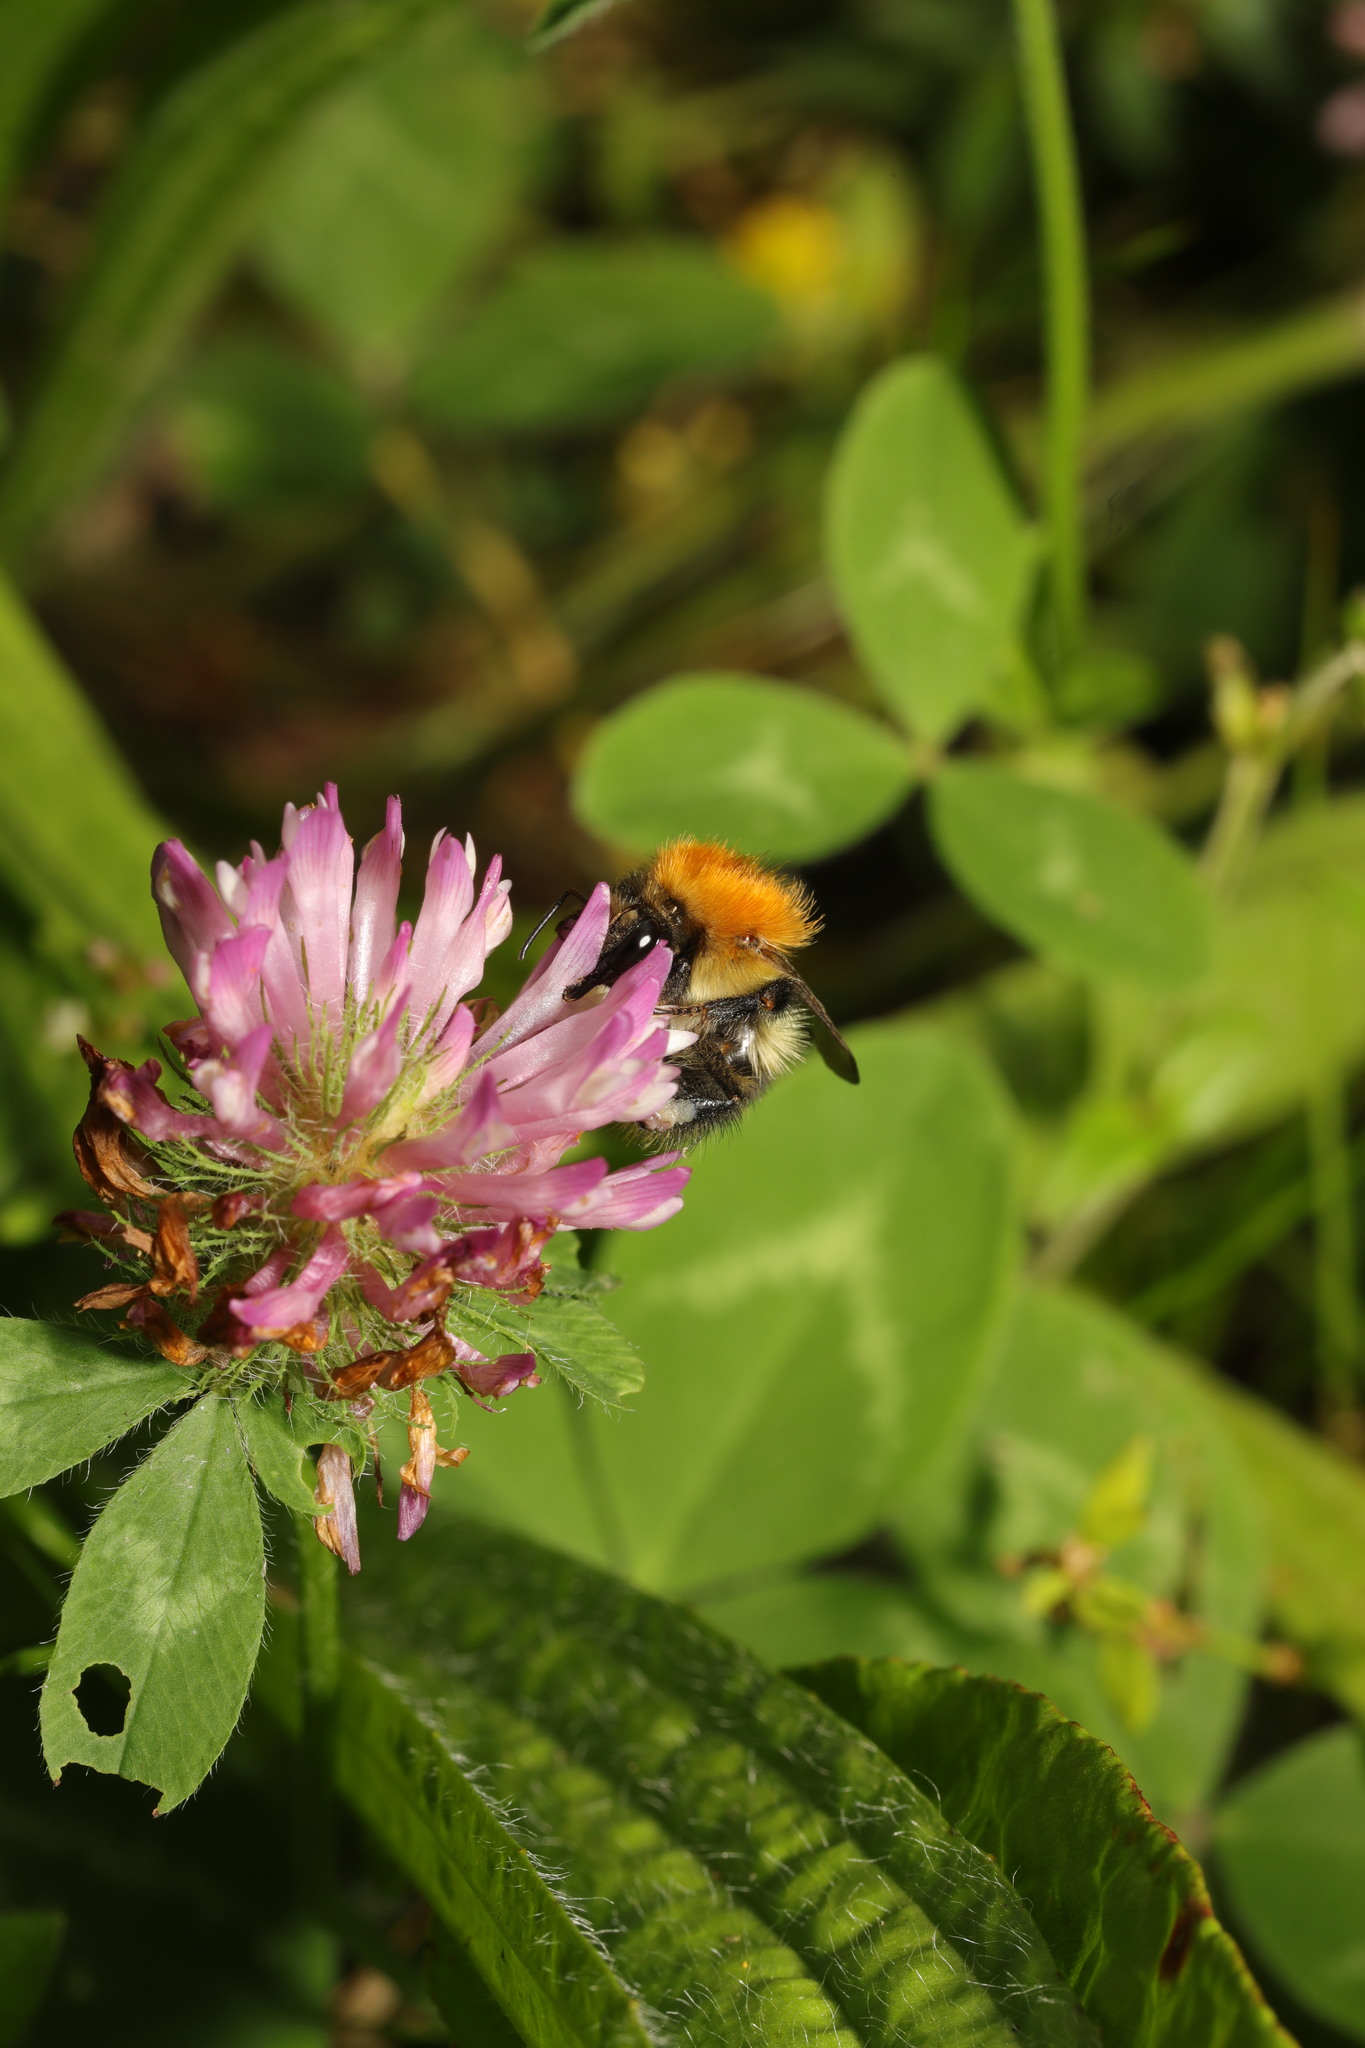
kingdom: Plantae
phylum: Tracheophyta
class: Magnoliopsida
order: Fabales
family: Fabaceae
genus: Trifolium
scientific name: Trifolium pratense
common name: Red clover
